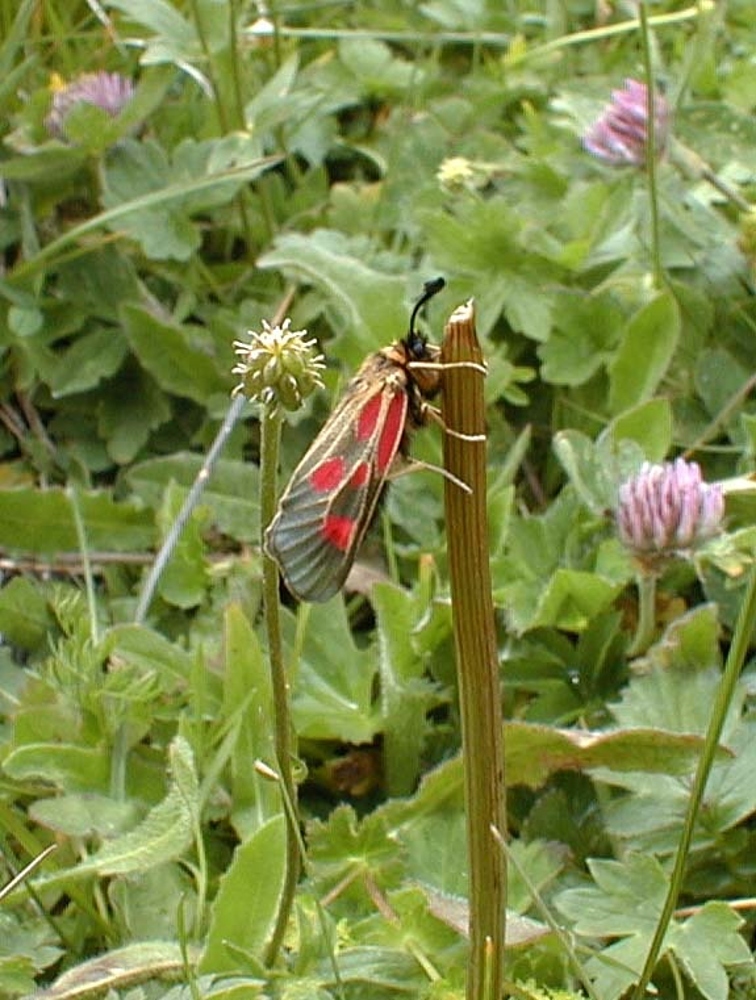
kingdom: Animalia
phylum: Arthropoda
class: Insecta
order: Lepidoptera
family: Zygaenidae
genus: Zygaena
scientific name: Zygaena exulans
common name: Scotch burnet
